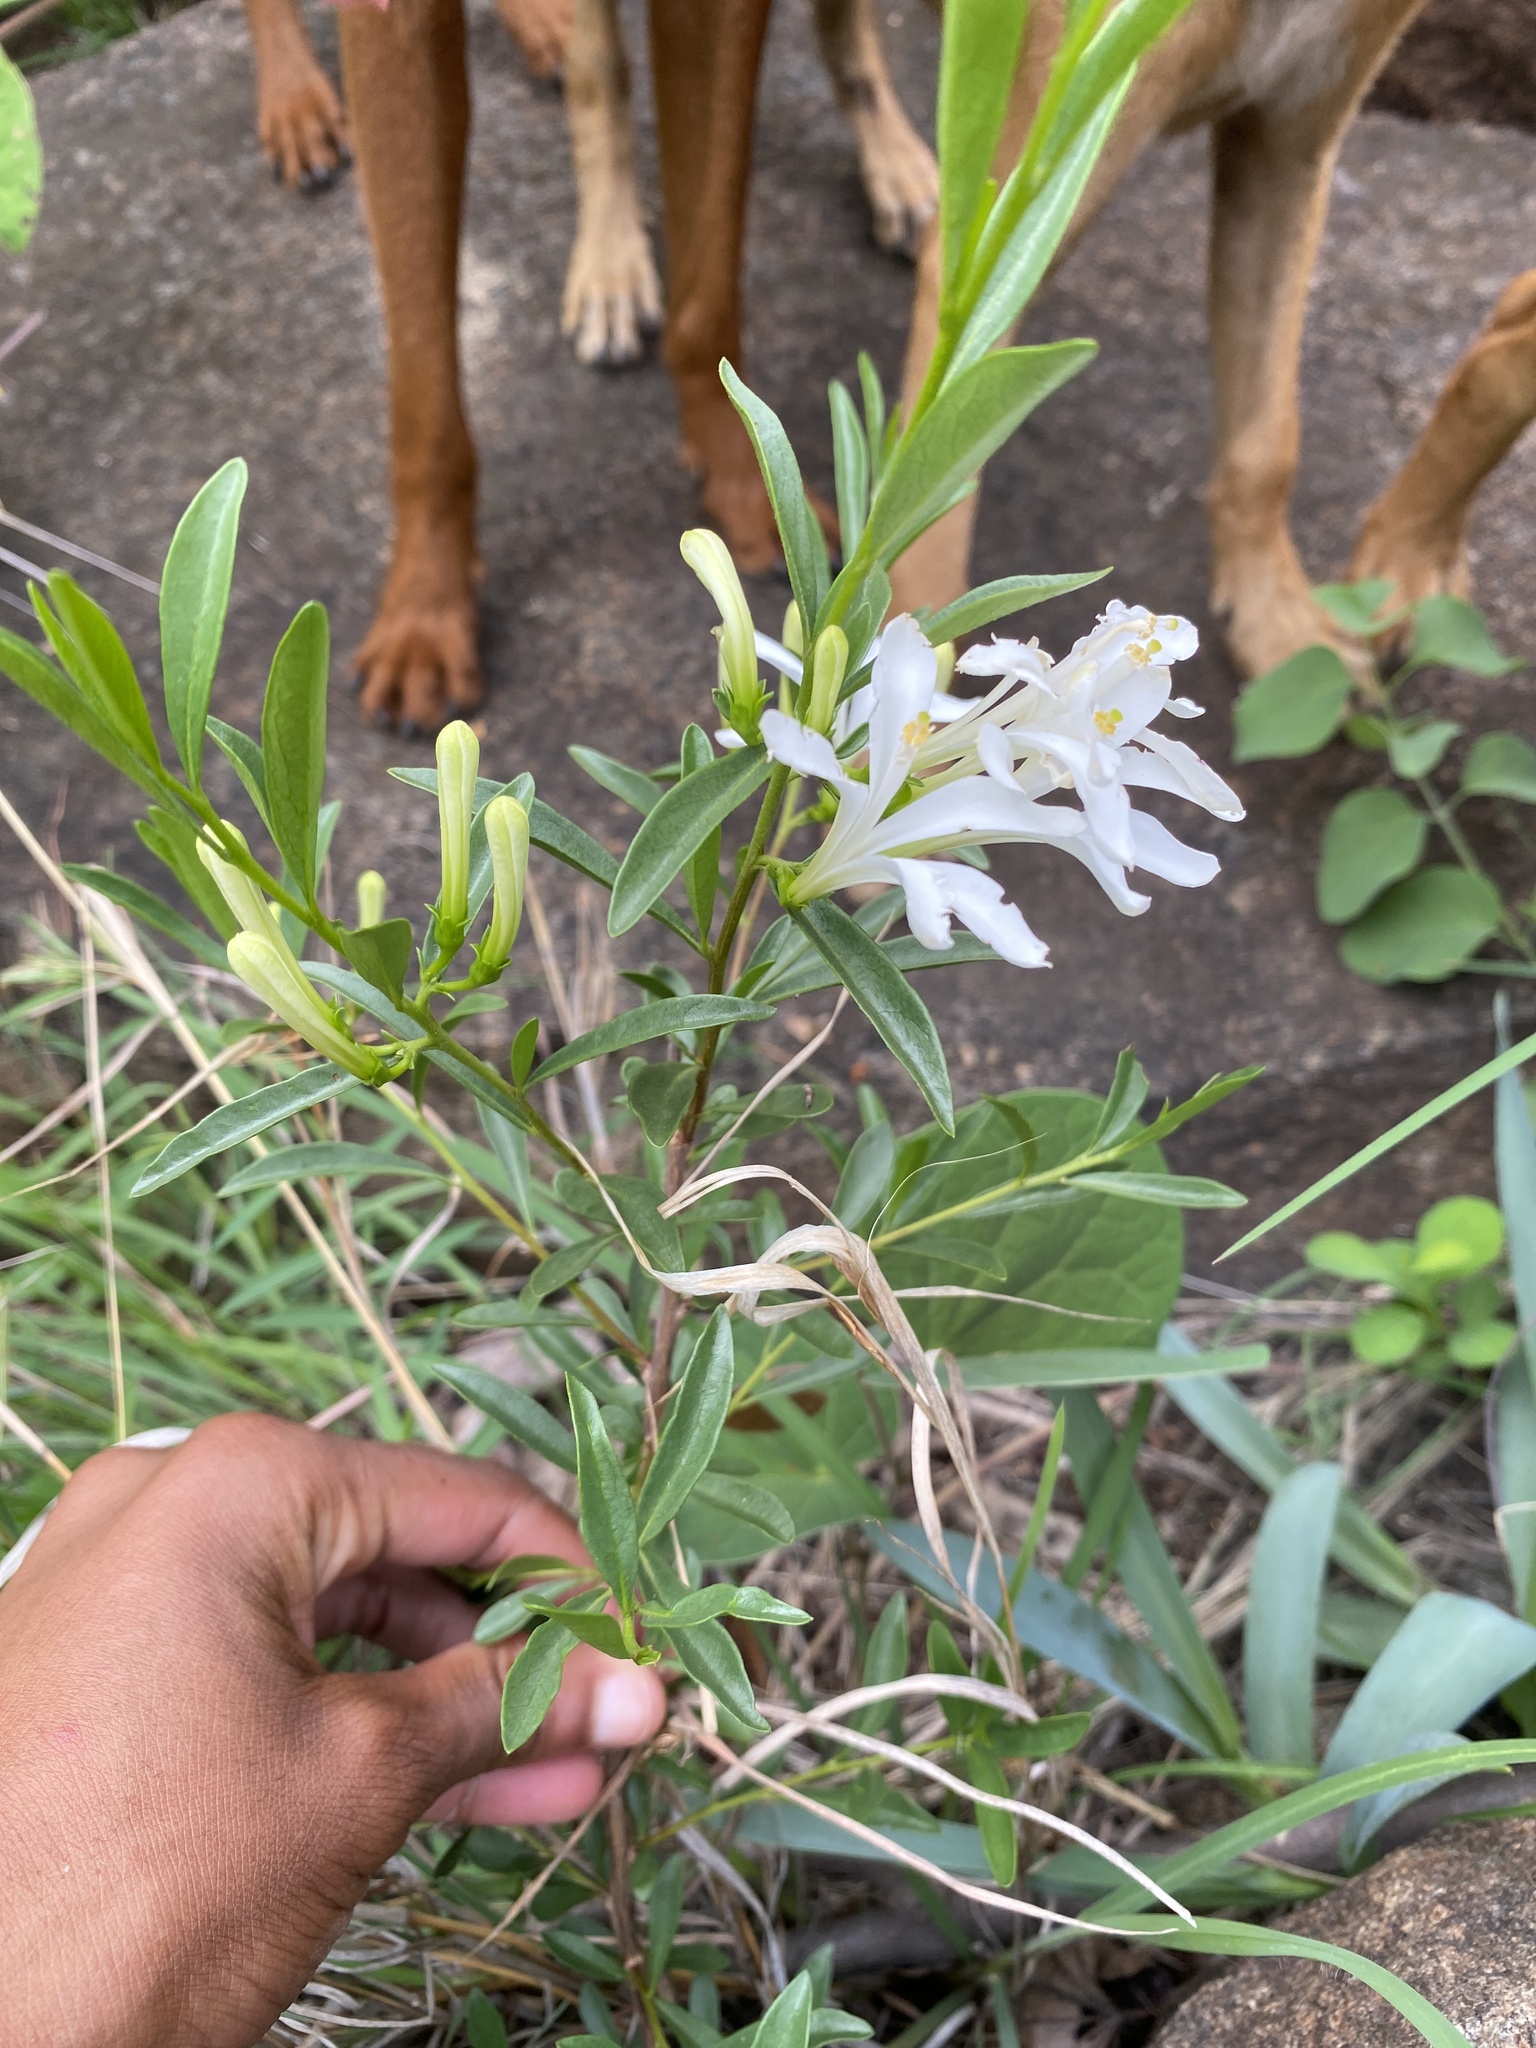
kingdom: Plantae
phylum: Tracheophyta
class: Magnoliopsida
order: Sapindales
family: Meliaceae
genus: Turraea
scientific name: Turraea obtusifolia
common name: Small honeysuckle tree
